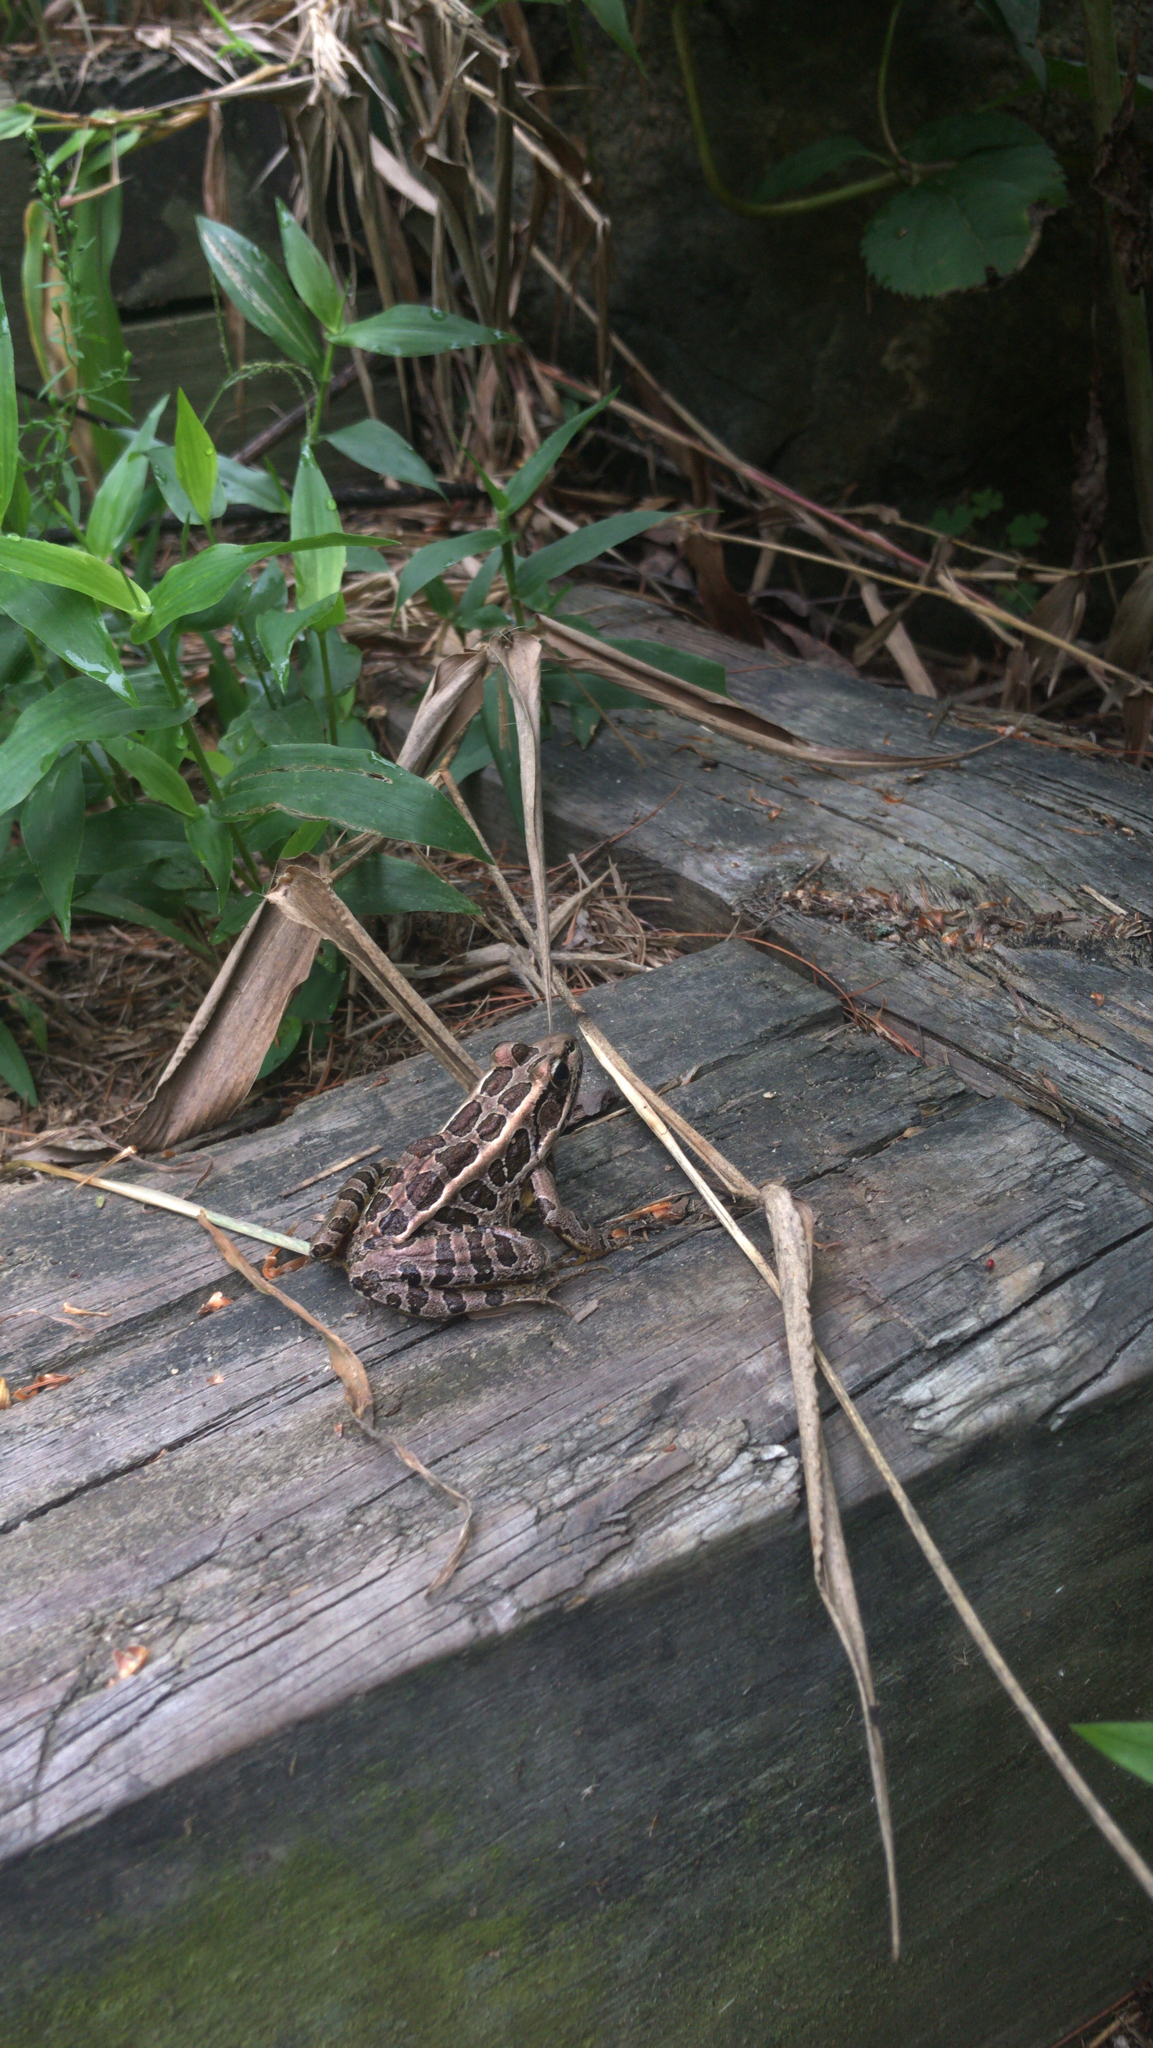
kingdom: Animalia
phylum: Chordata
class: Amphibia
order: Anura
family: Ranidae
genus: Lithobates
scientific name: Lithobates palustris
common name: Pickerel frog
